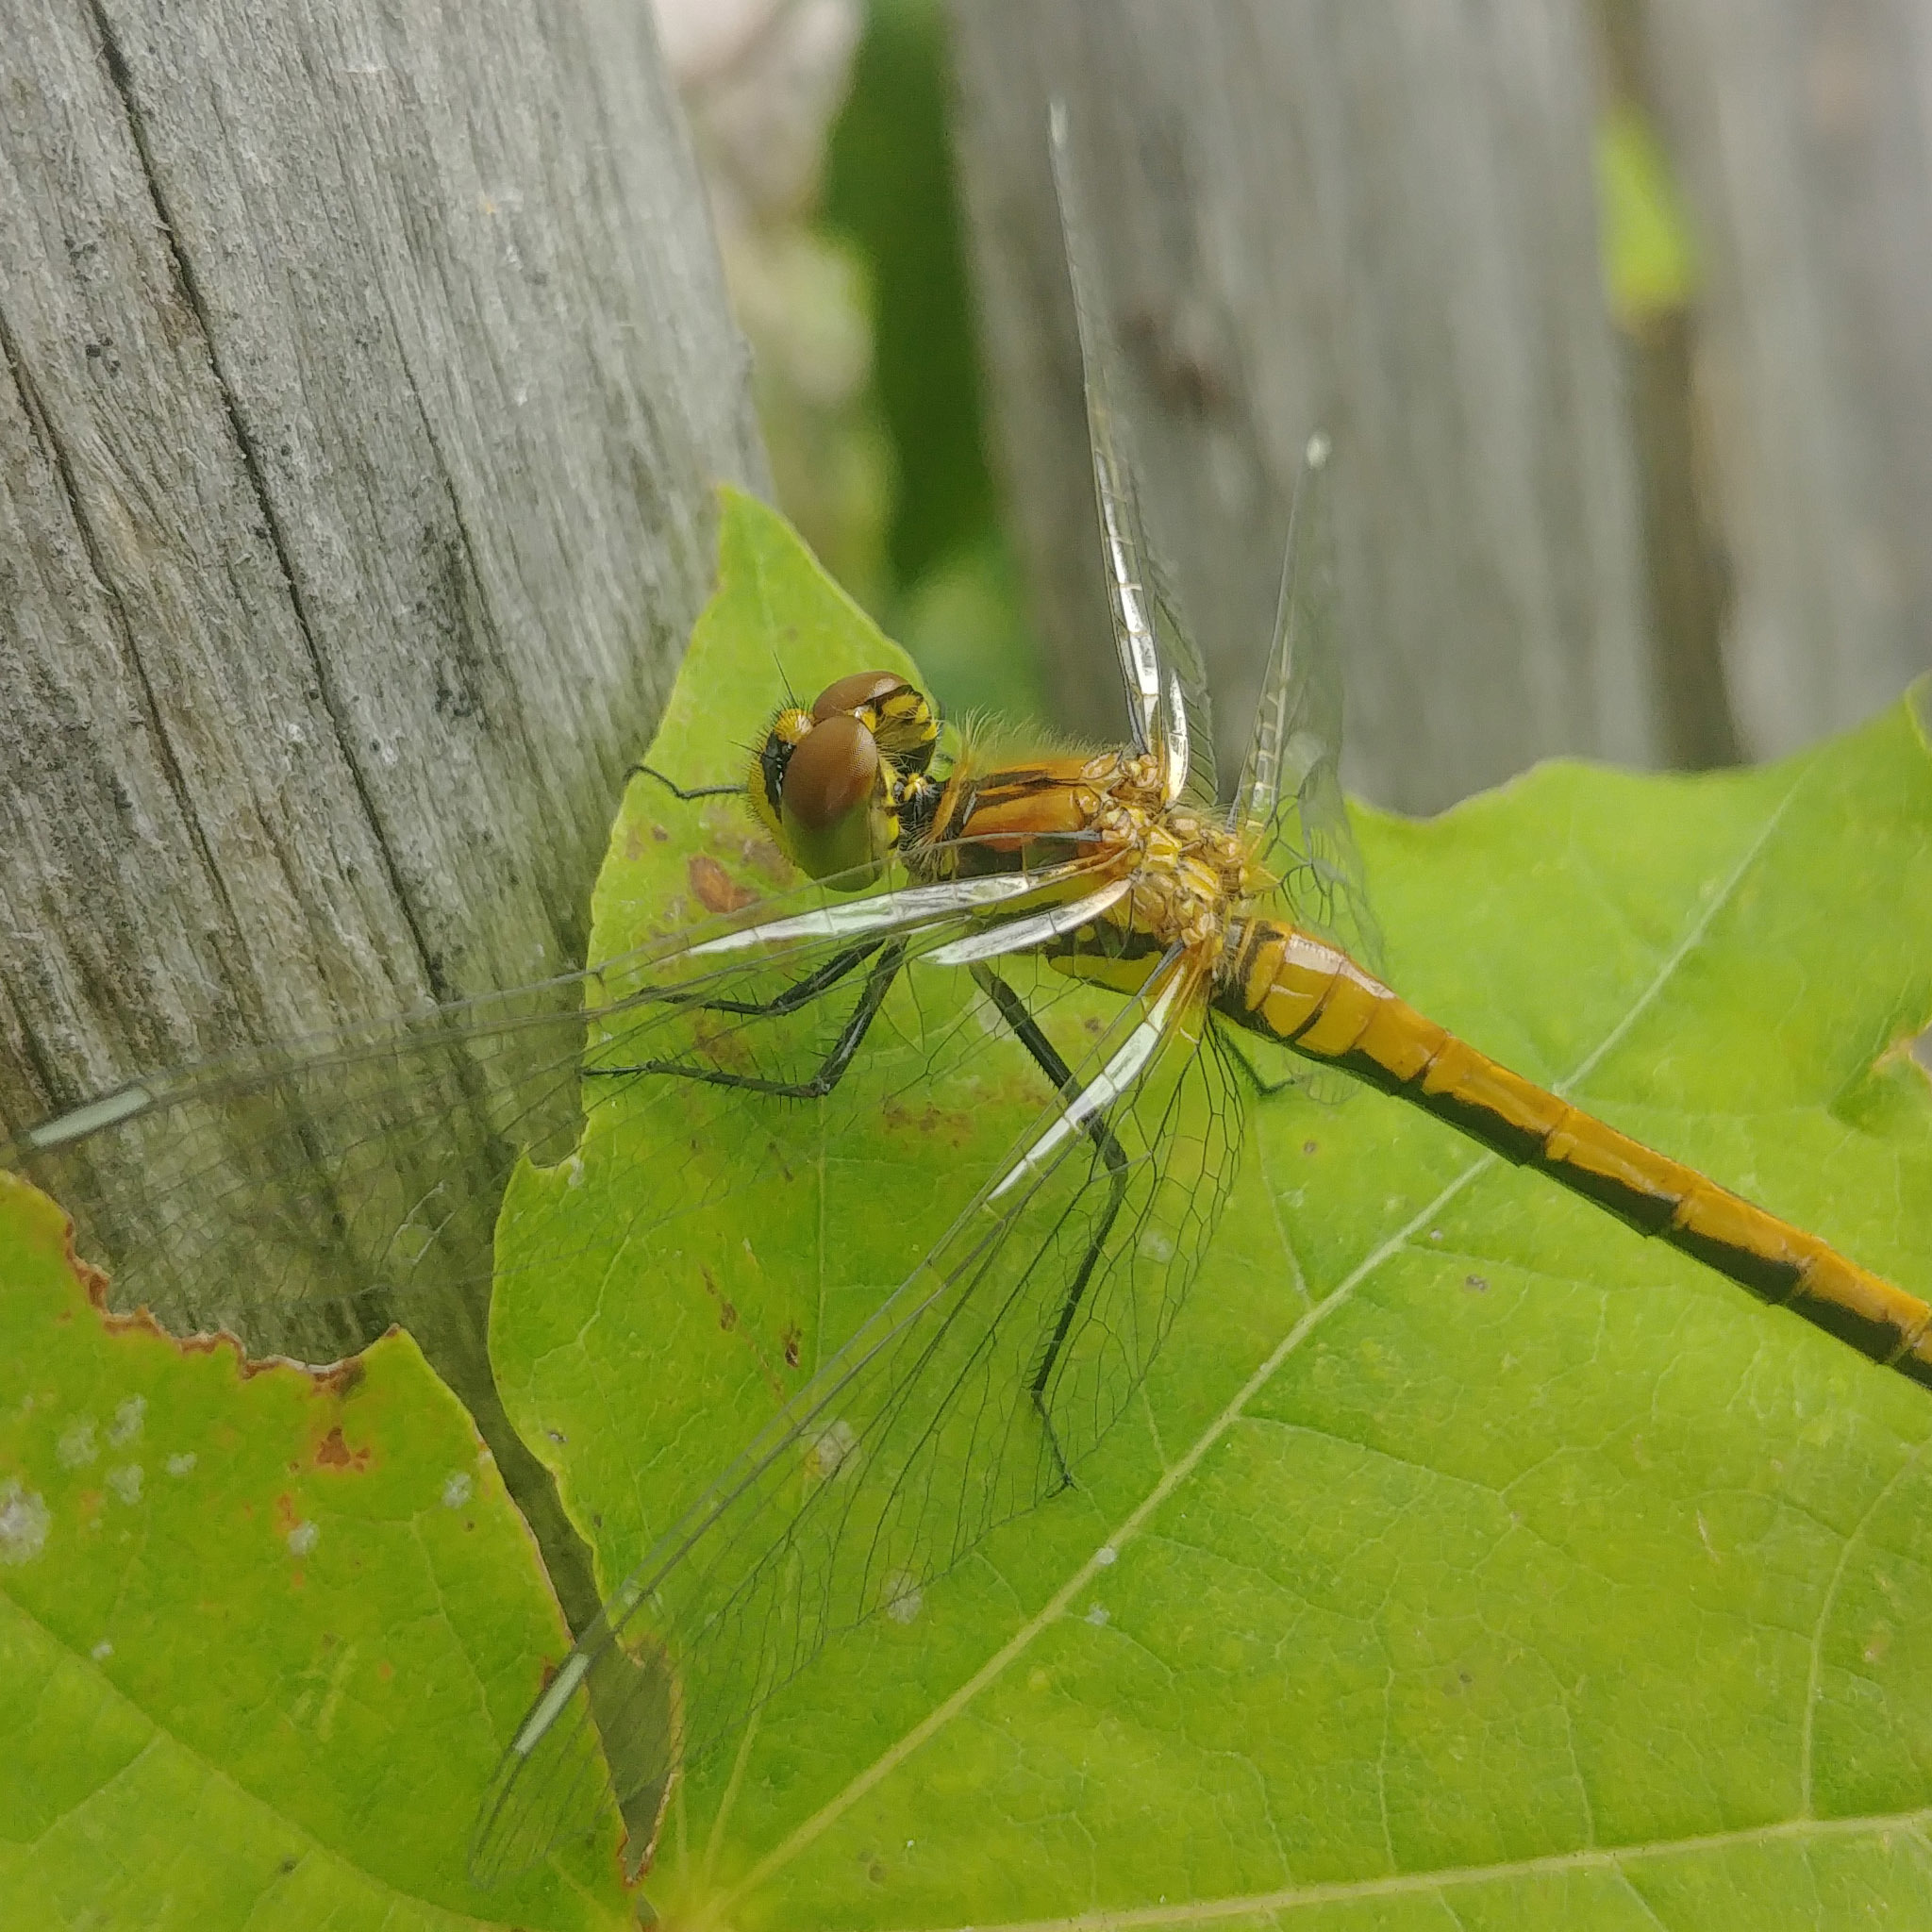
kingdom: Animalia
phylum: Arthropoda
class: Insecta
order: Odonata
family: Libellulidae
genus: Sympetrum
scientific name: Sympetrum danae
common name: Black darter
